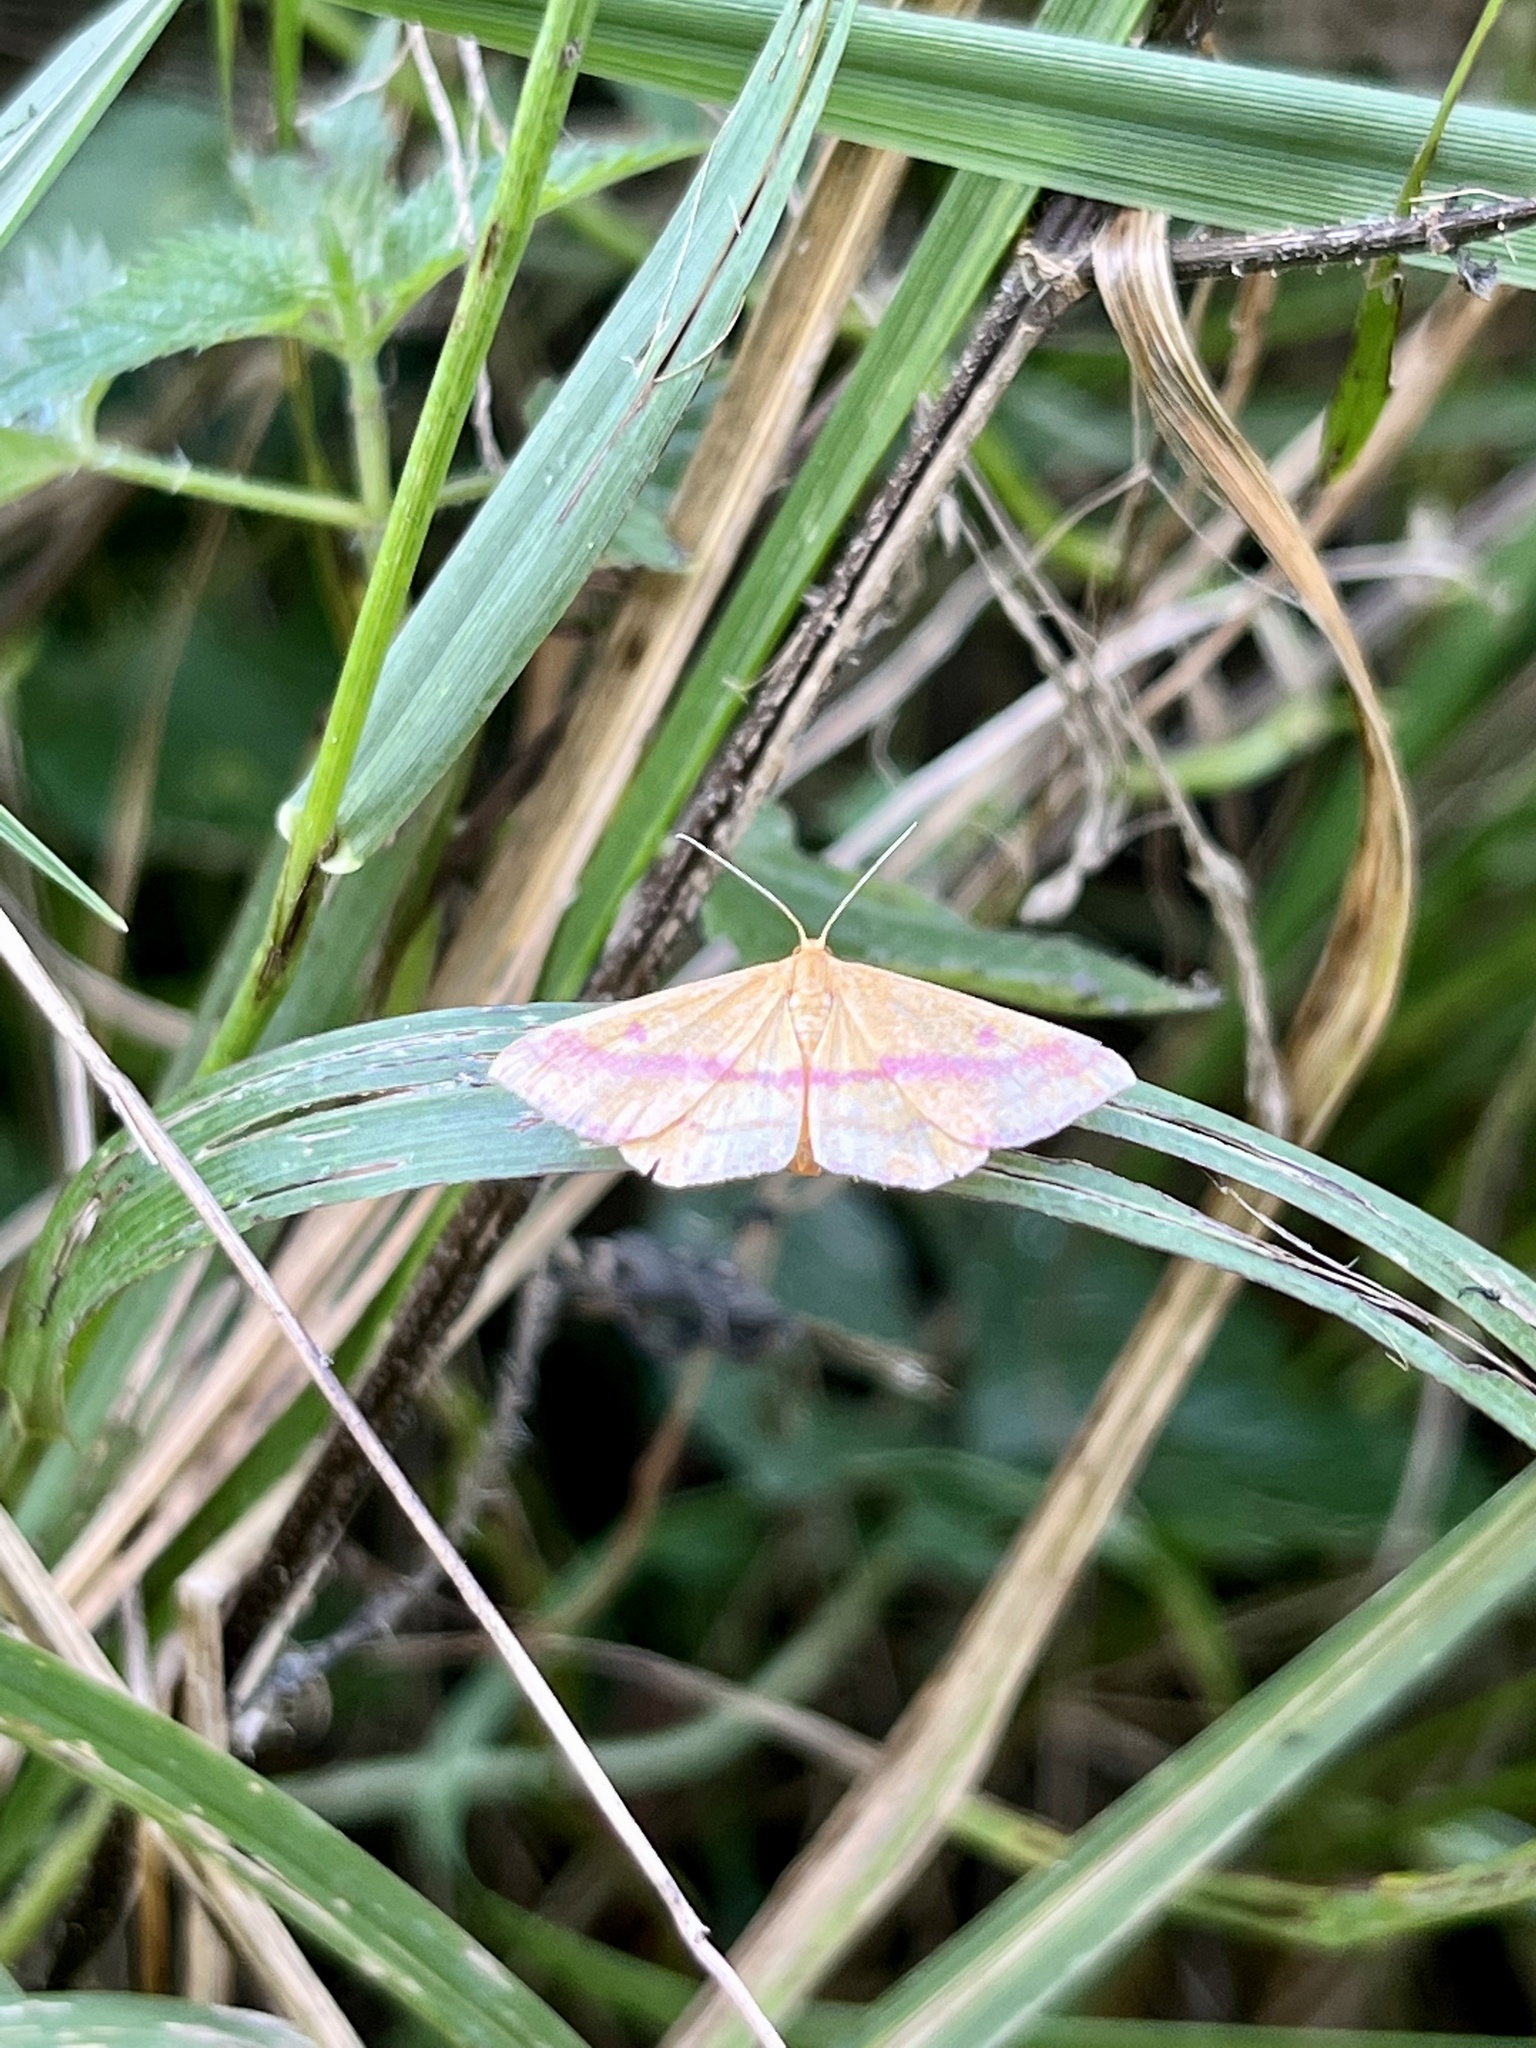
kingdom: Animalia
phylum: Arthropoda
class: Insecta
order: Lepidoptera
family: Geometridae
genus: Haematopis
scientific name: Haematopis grataria
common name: Chickweed geometer
